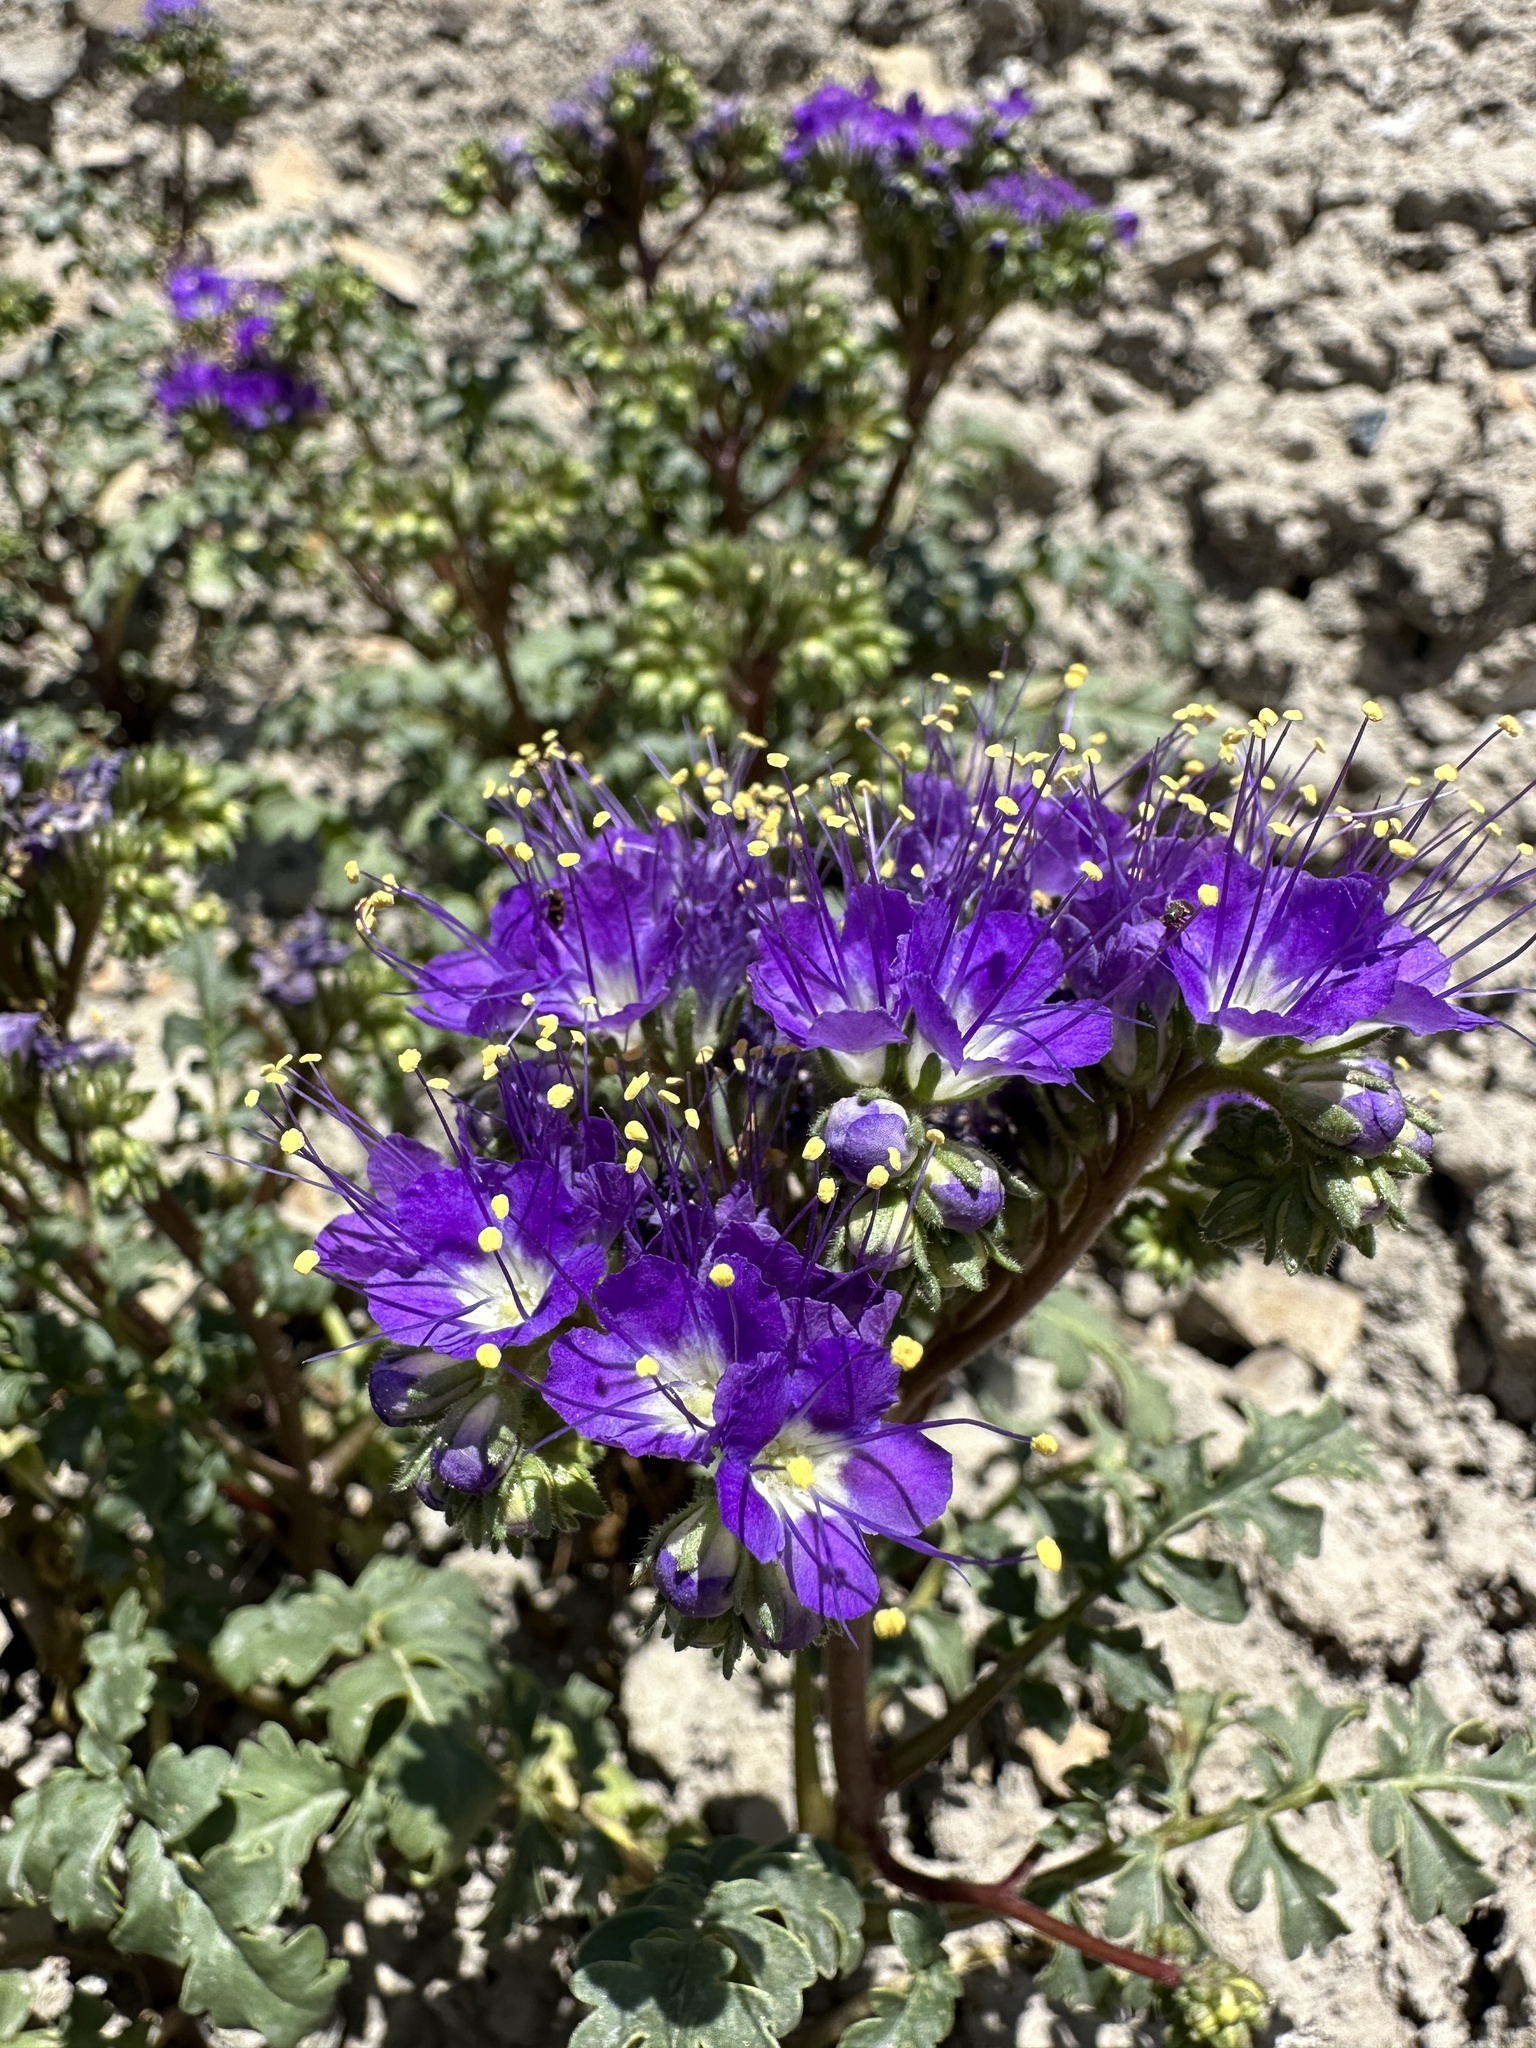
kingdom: Plantae
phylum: Tracheophyta
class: Magnoliopsida
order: Boraginales
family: Hydrophyllaceae
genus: Phacelia
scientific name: Phacelia splendens
